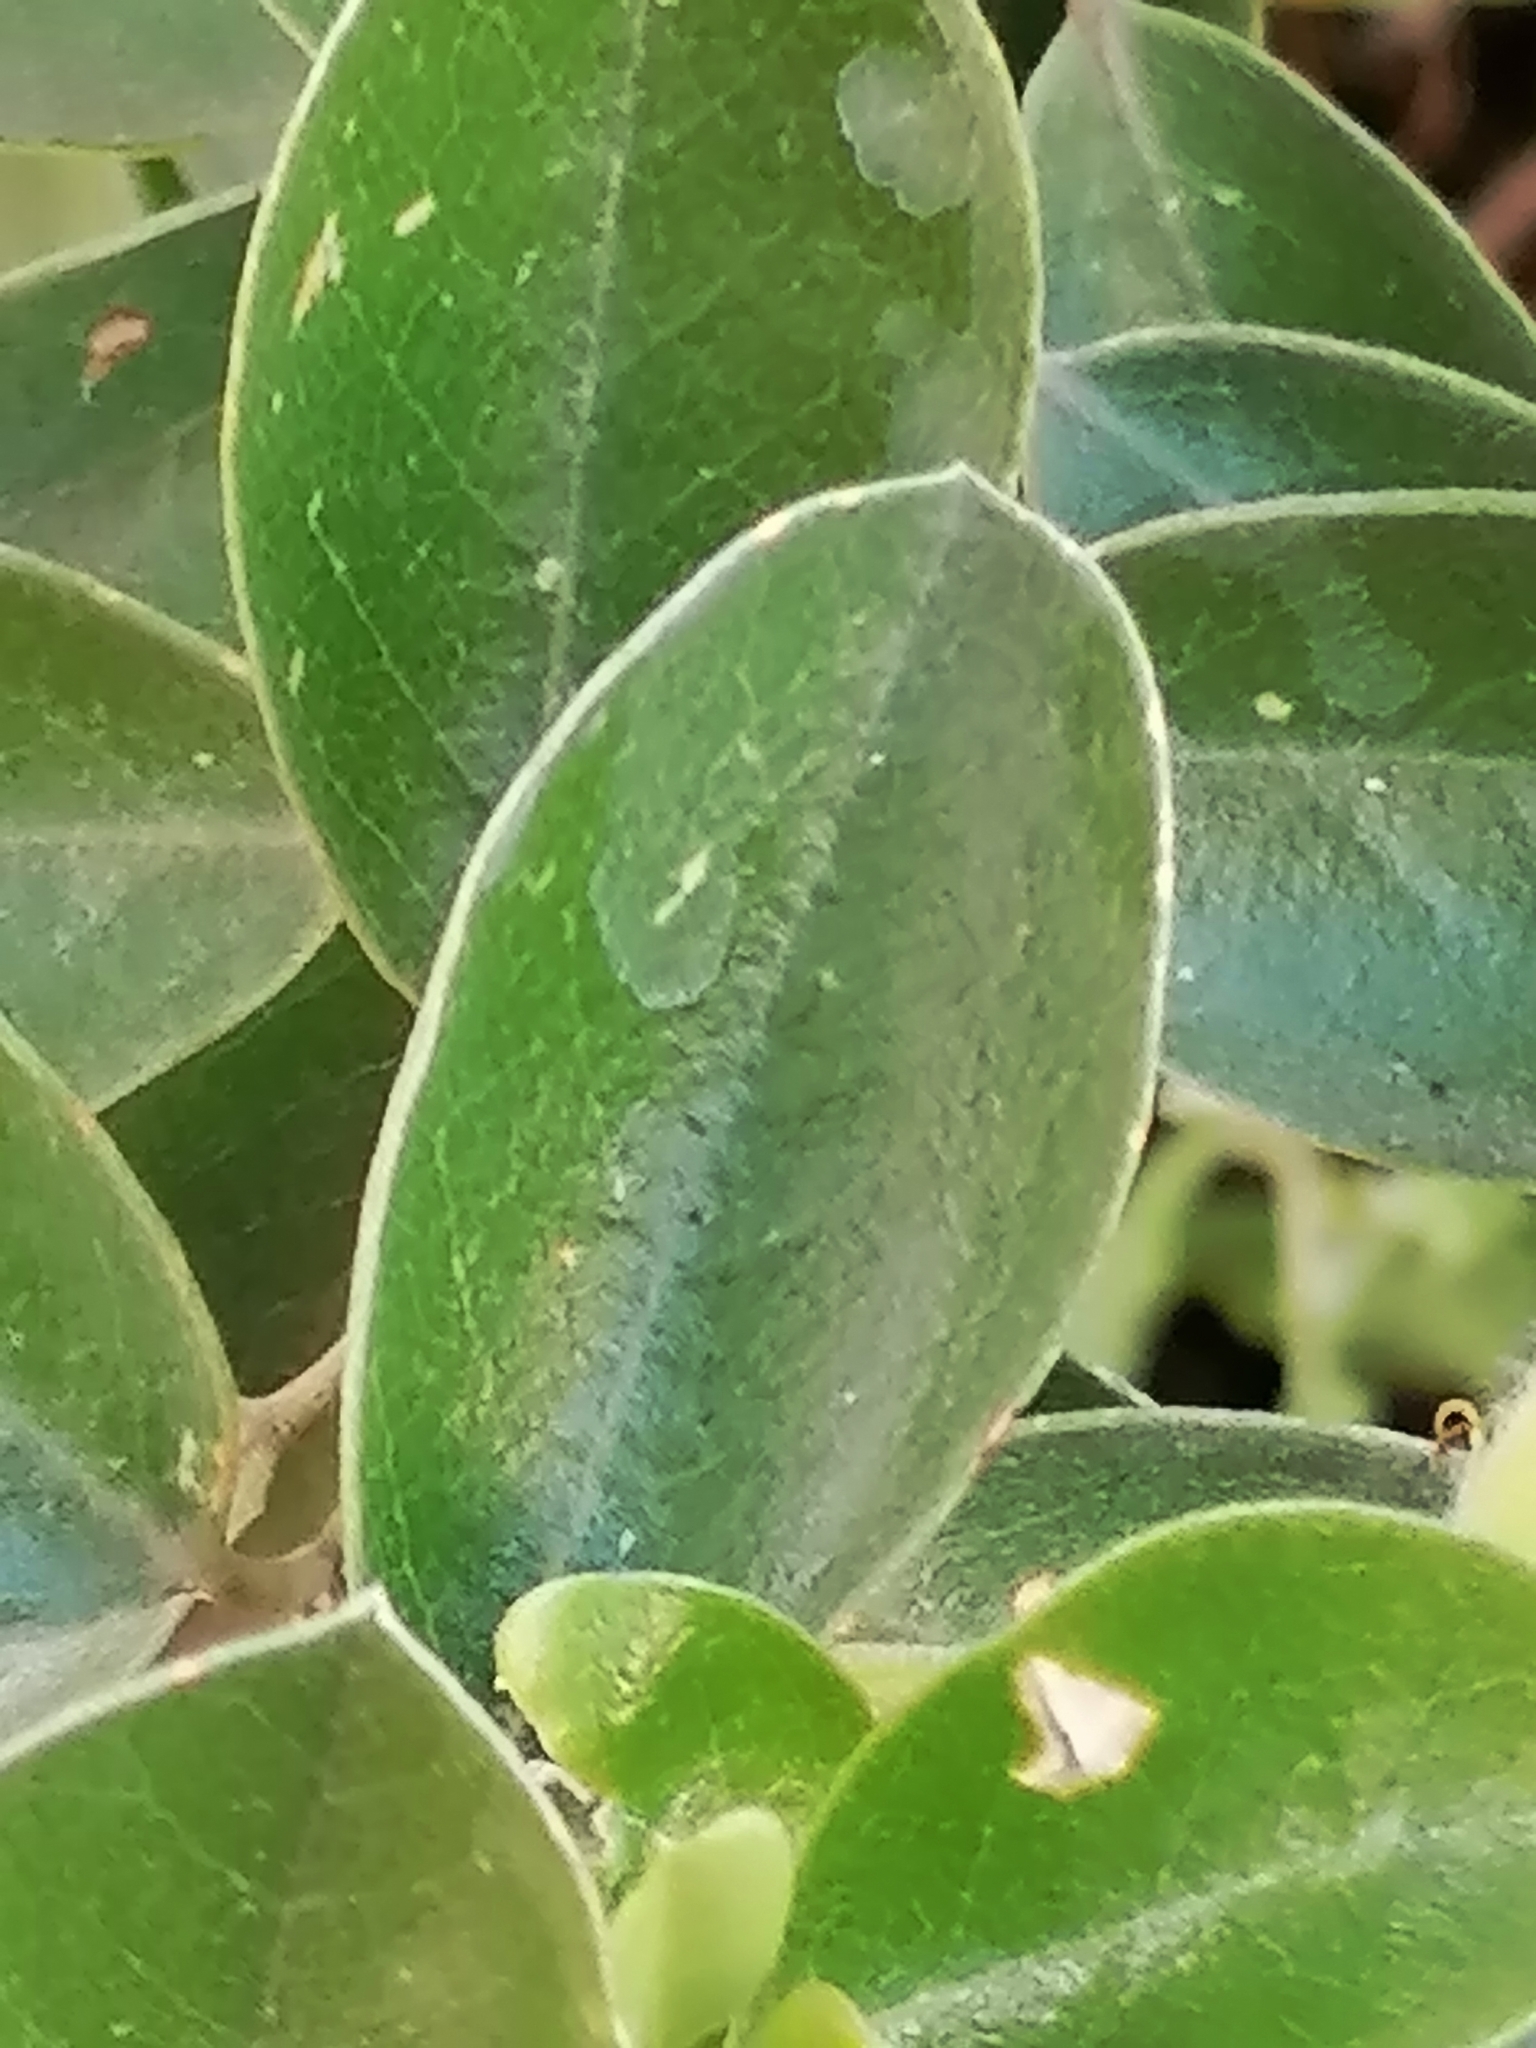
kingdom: Plantae
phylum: Tracheophyta
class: Magnoliopsida
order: Fabales
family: Fabaceae
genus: Podalyria
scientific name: Podalyria calyptrata
